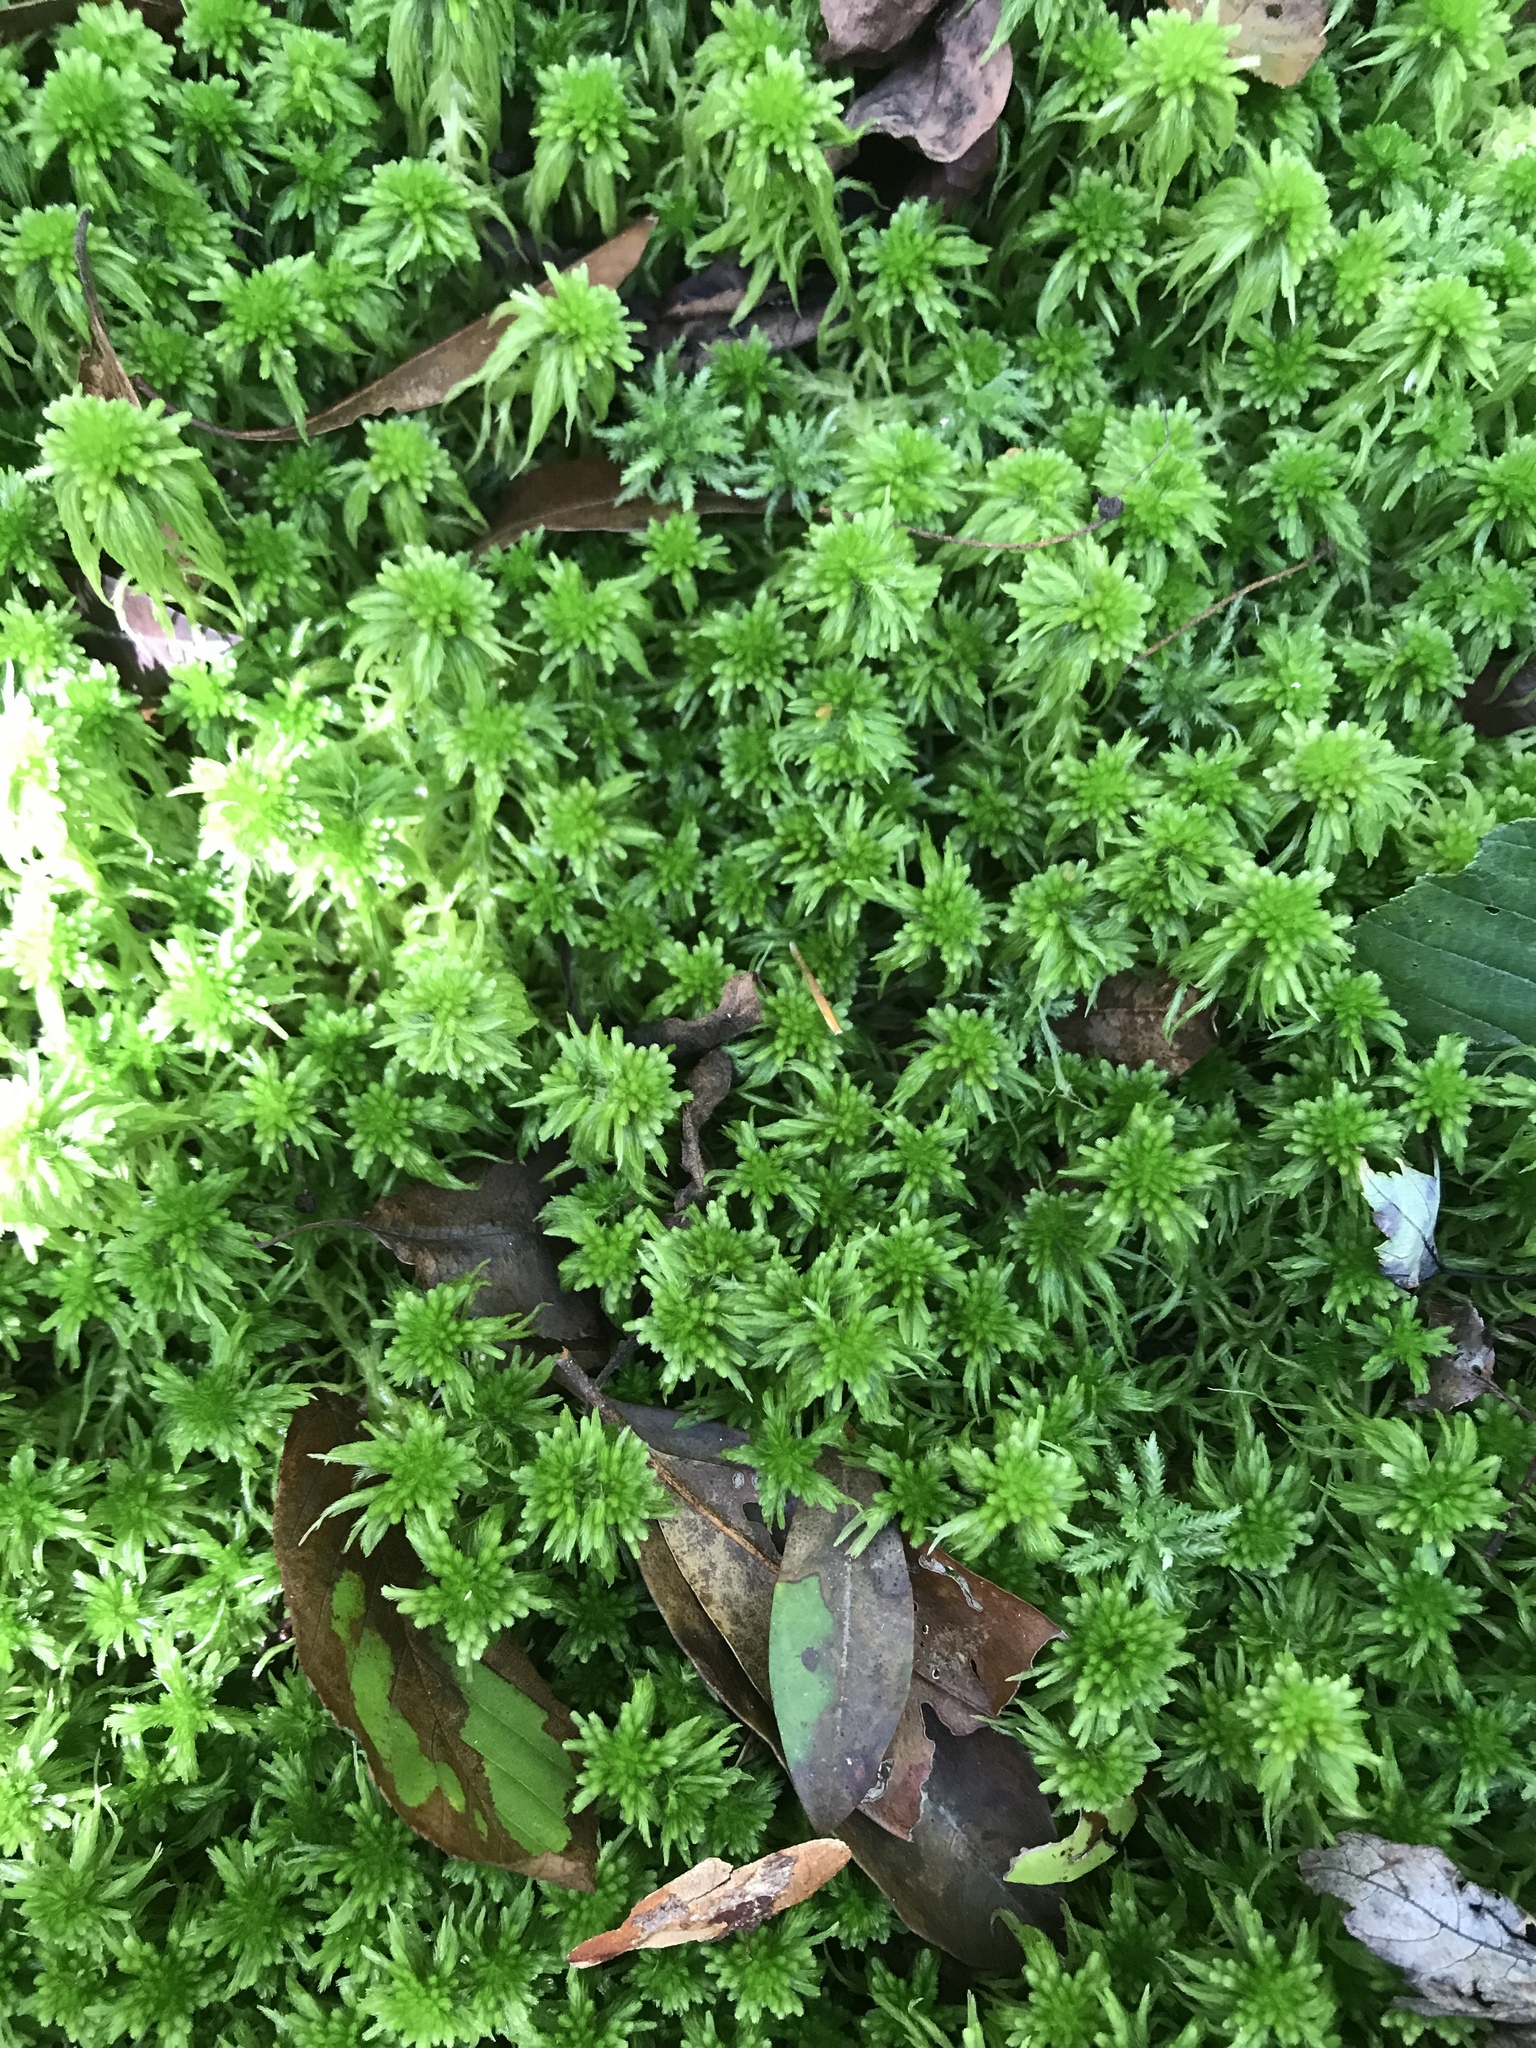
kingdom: Plantae
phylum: Bryophyta
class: Sphagnopsida
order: Sphagnales
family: Sphagnaceae
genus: Sphagnum
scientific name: Sphagnum recurvum
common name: Recurved peatmoss
